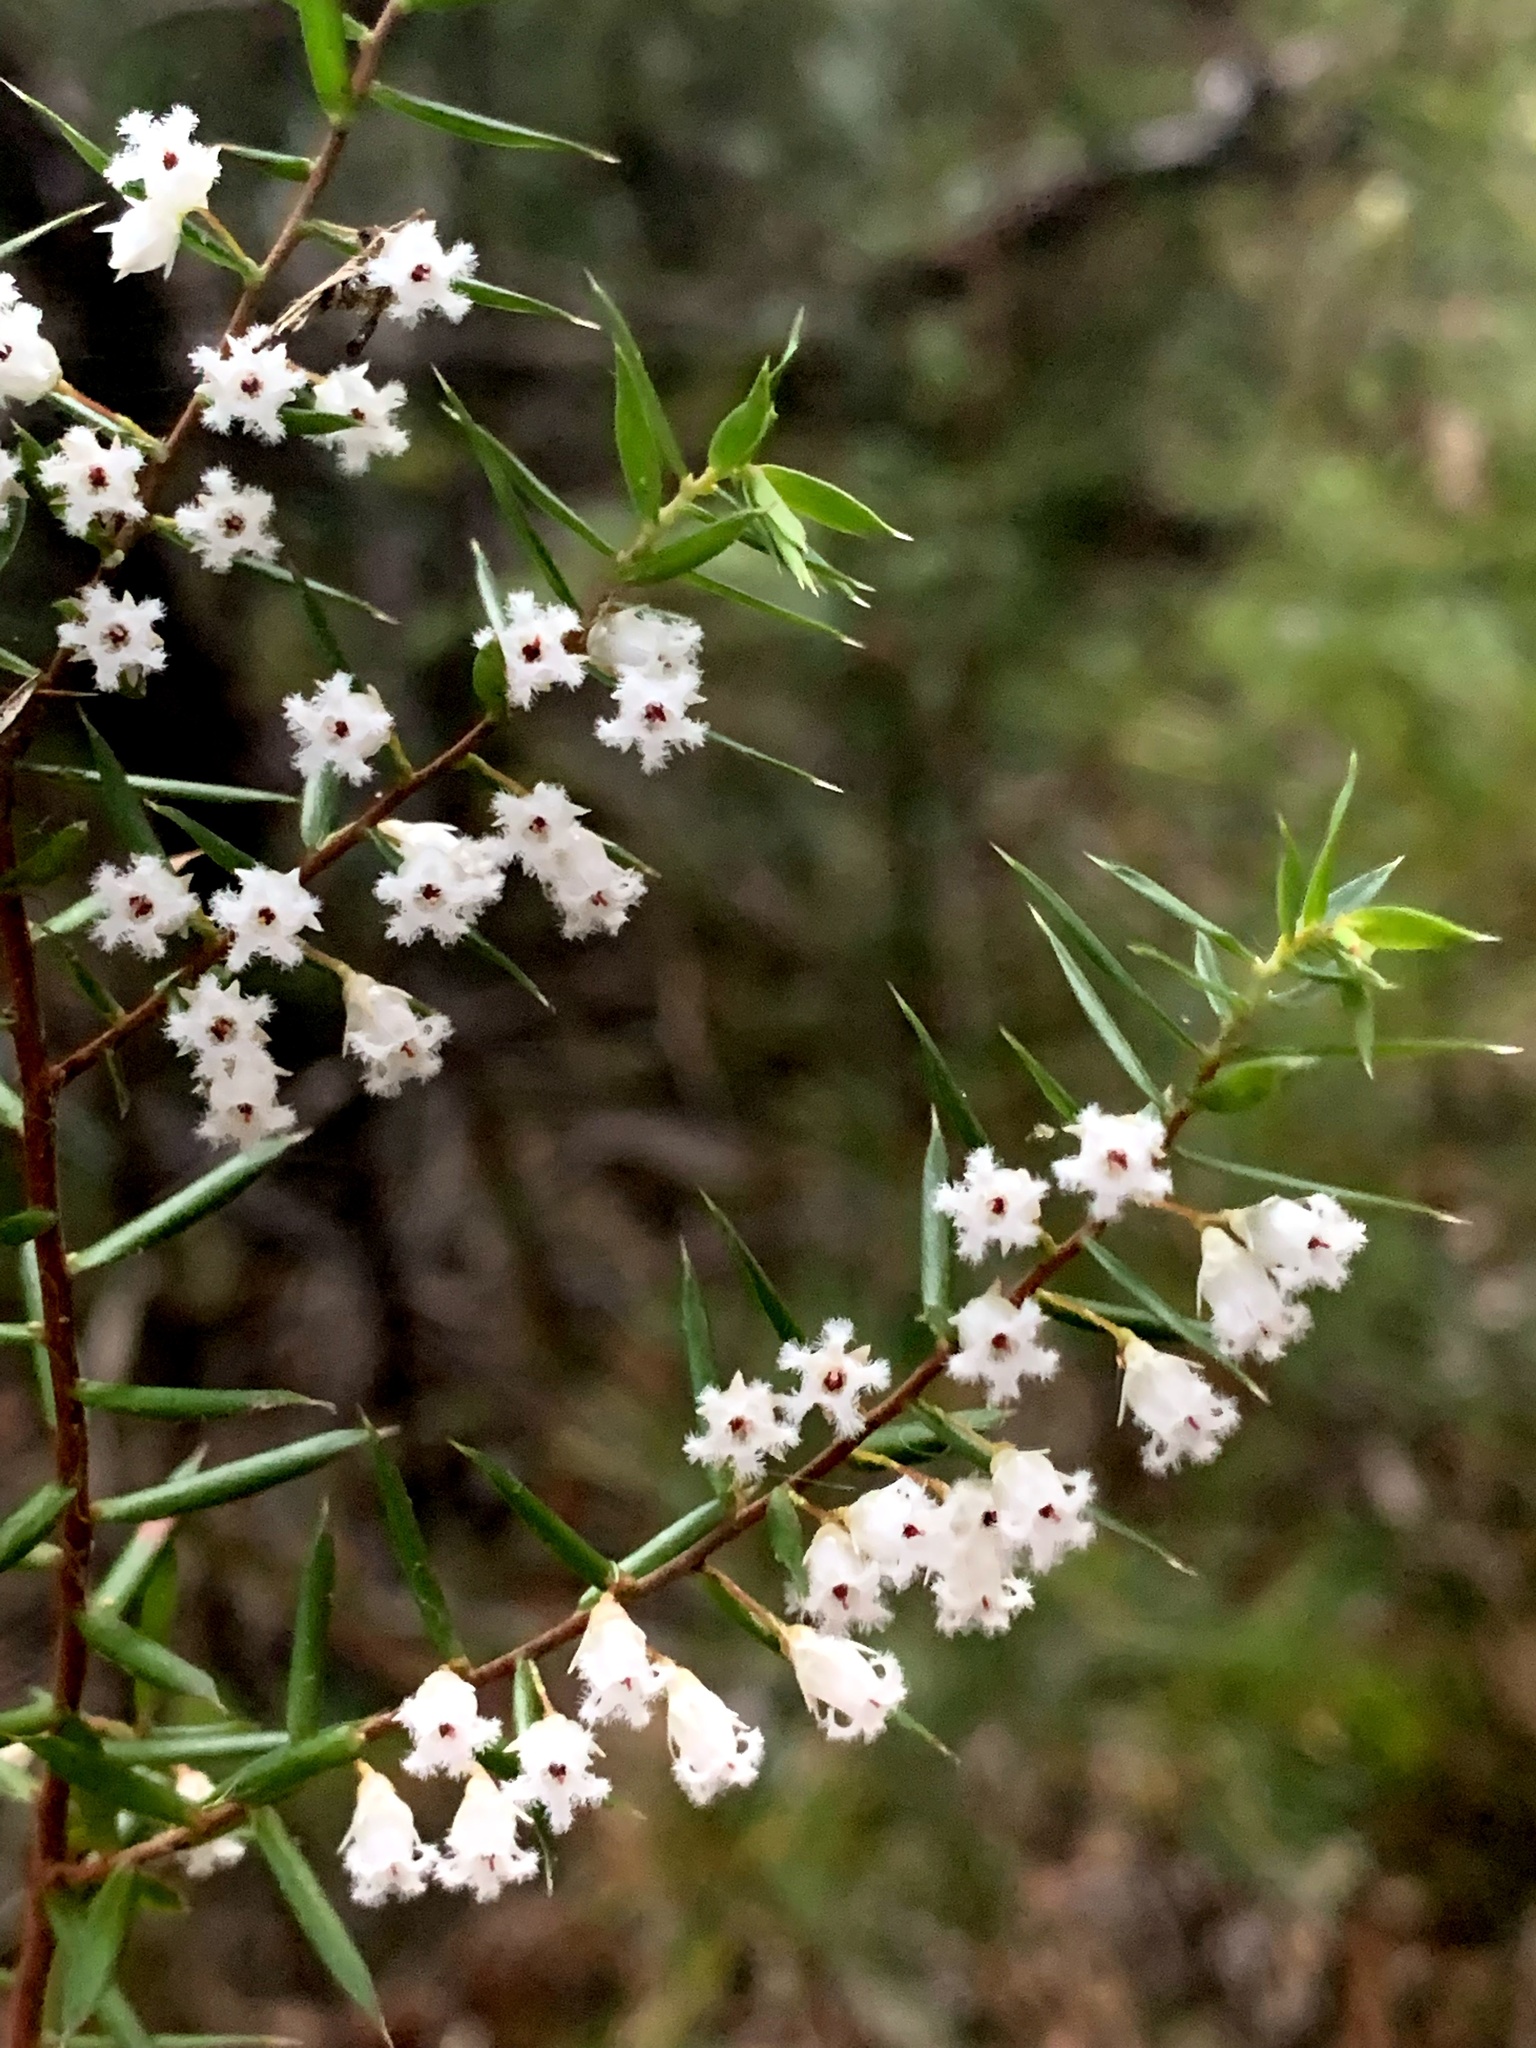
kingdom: Plantae
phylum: Tracheophyta
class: Magnoliopsida
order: Ericales
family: Ericaceae
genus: Styphelia
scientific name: Styphelia setigera
